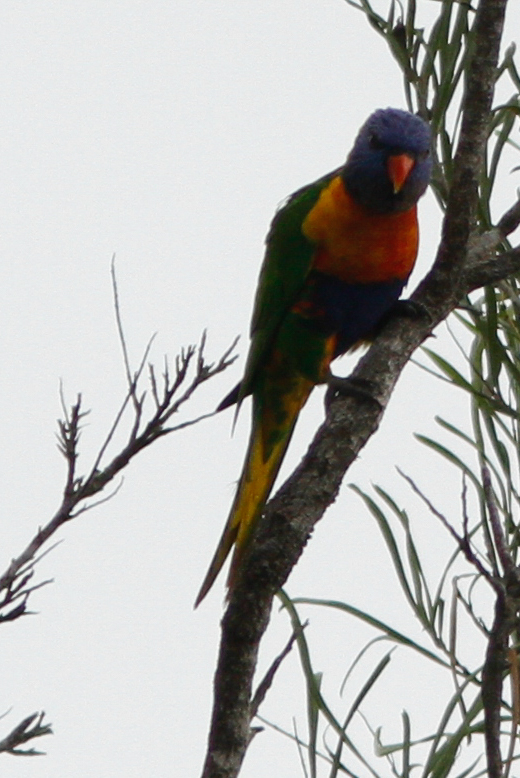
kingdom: Animalia
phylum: Chordata
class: Aves
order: Psittaciformes
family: Psittacidae
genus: Trichoglossus
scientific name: Trichoglossus haematodus
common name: Coconut lorikeet
